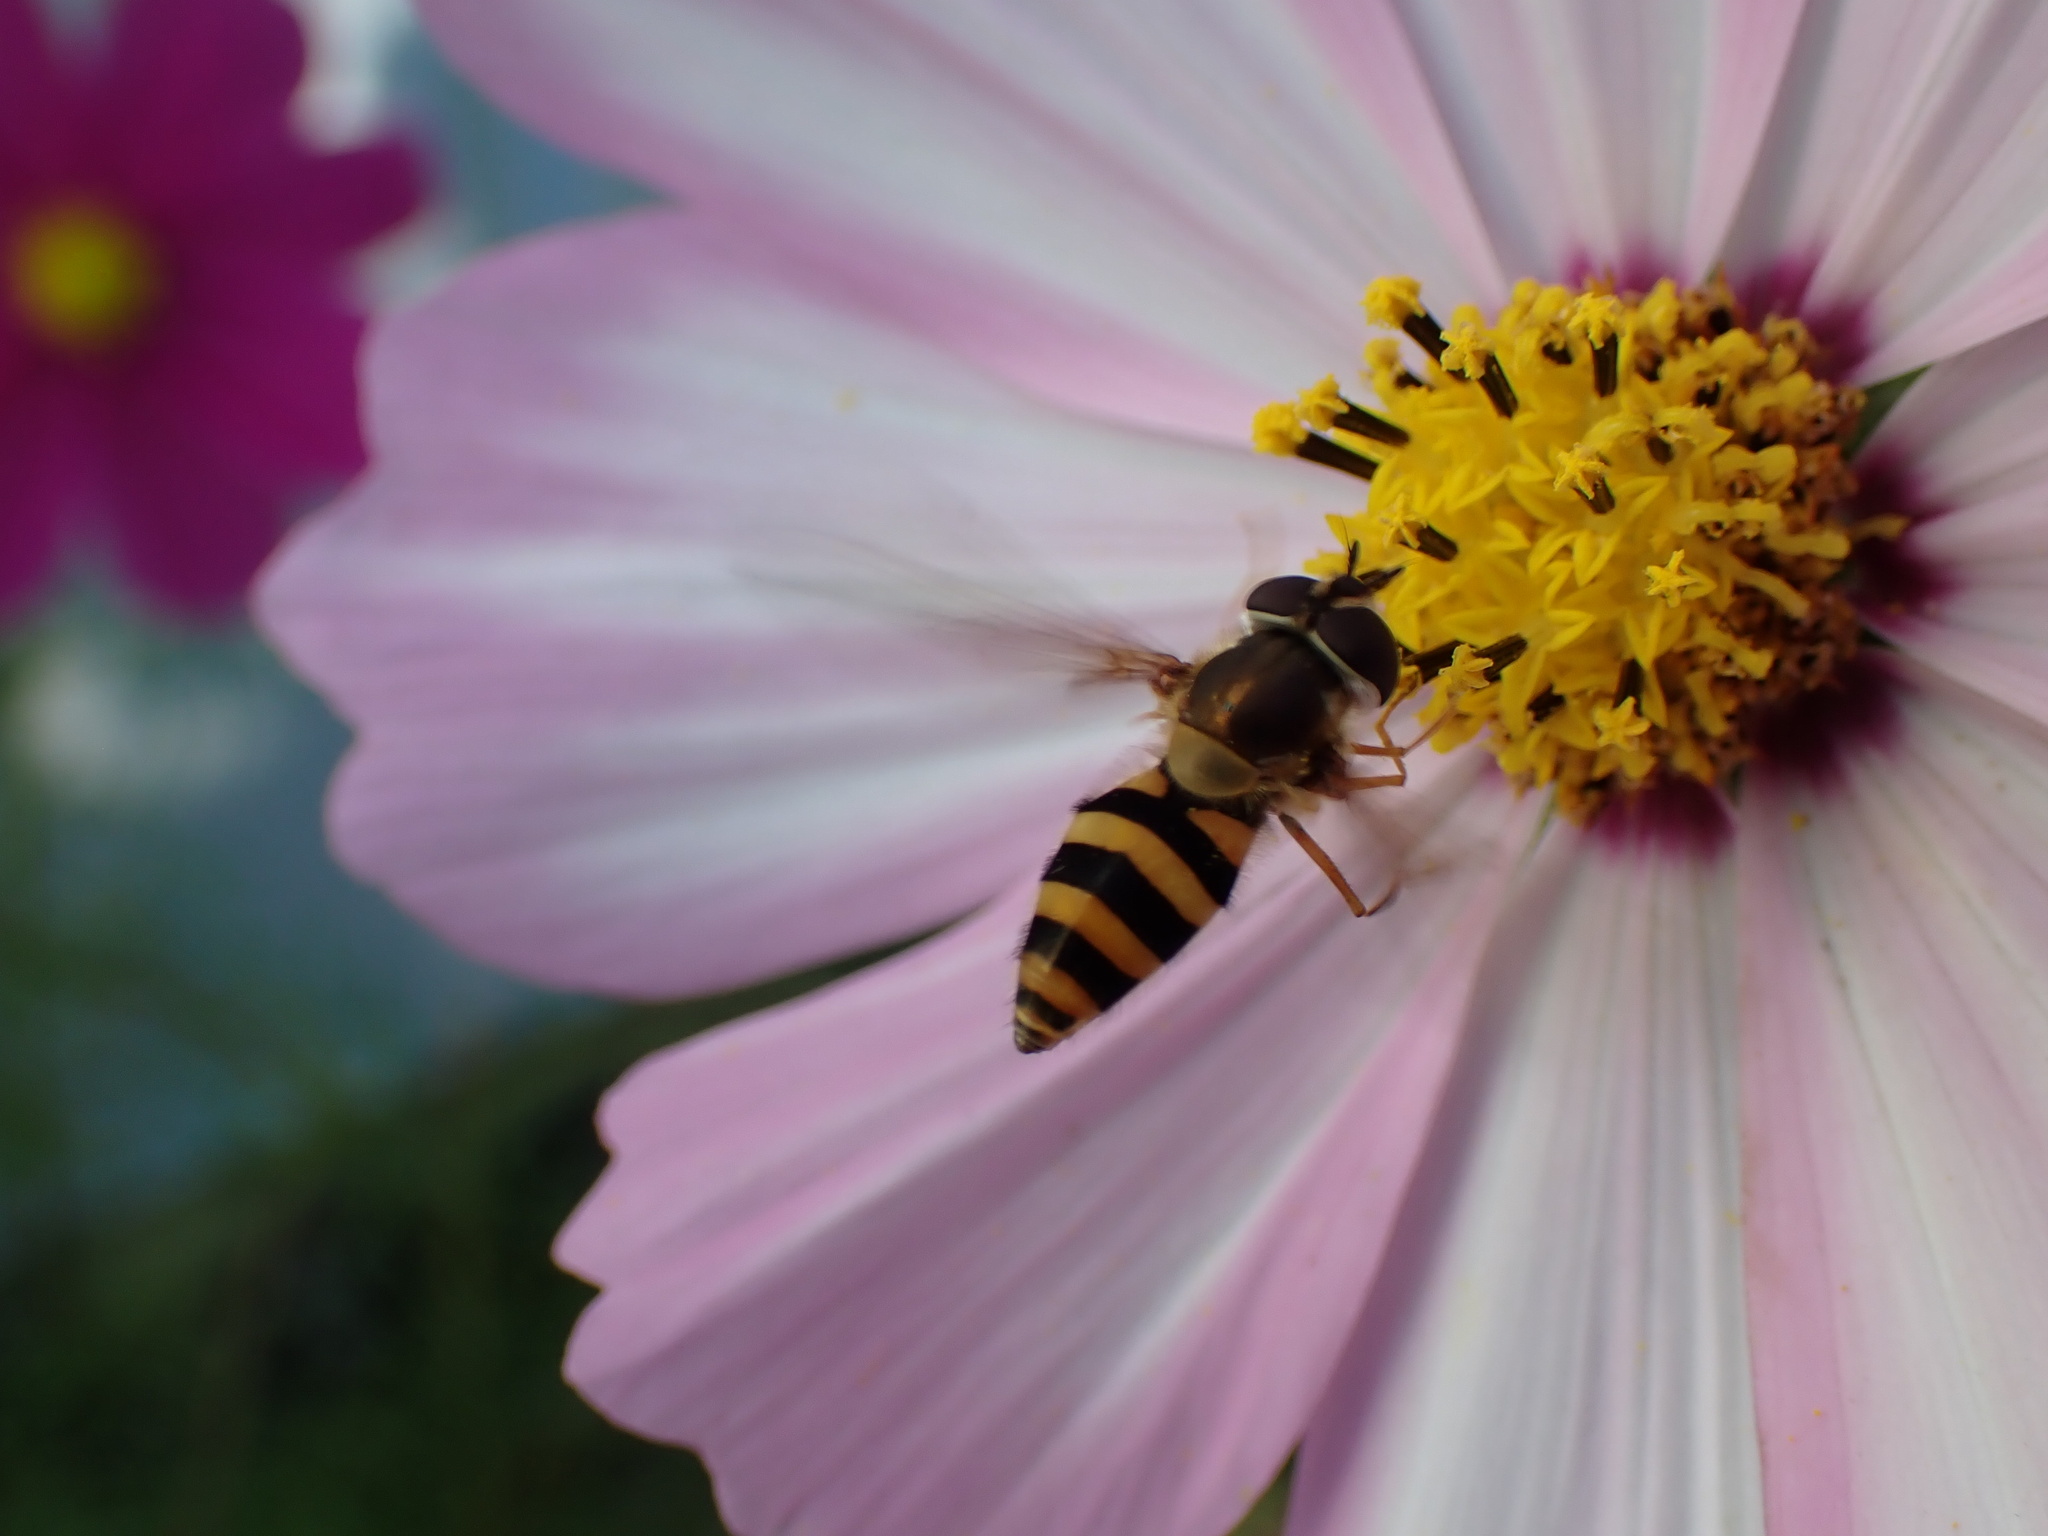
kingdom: Animalia
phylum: Arthropoda
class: Insecta
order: Diptera
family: Syrphidae
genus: Epistrophe
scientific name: Epistrophe grossulariae
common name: Black-horned smoothtail
